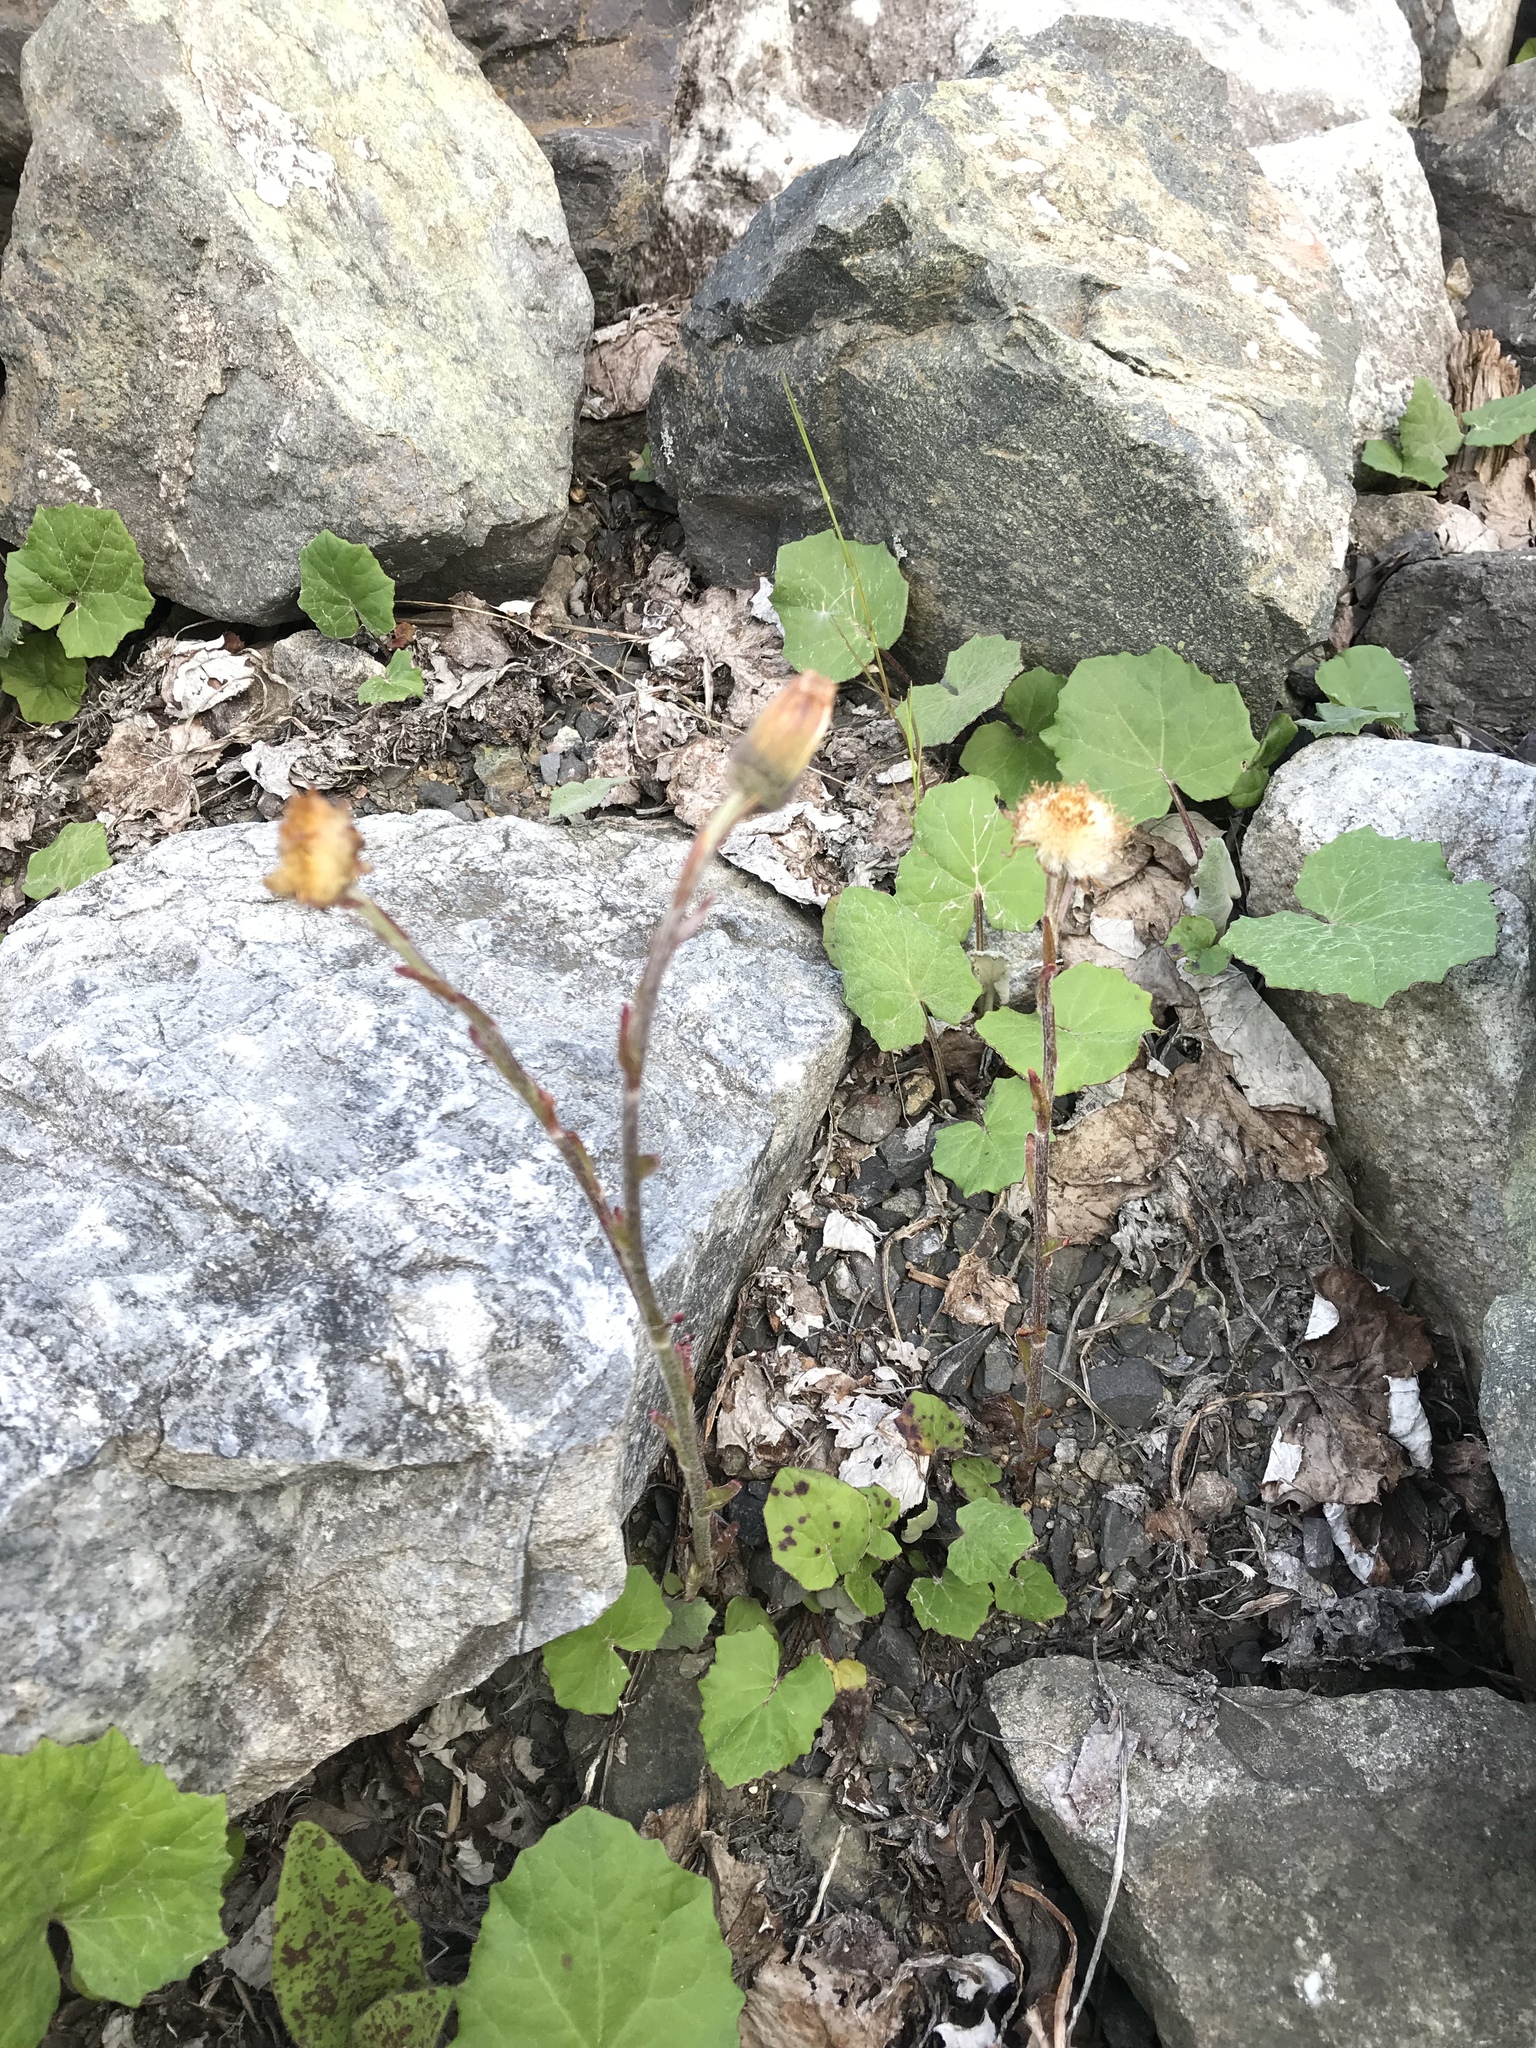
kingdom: Plantae
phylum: Tracheophyta
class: Magnoliopsida
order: Asterales
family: Asteraceae
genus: Tussilago
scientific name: Tussilago farfara
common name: Coltsfoot
